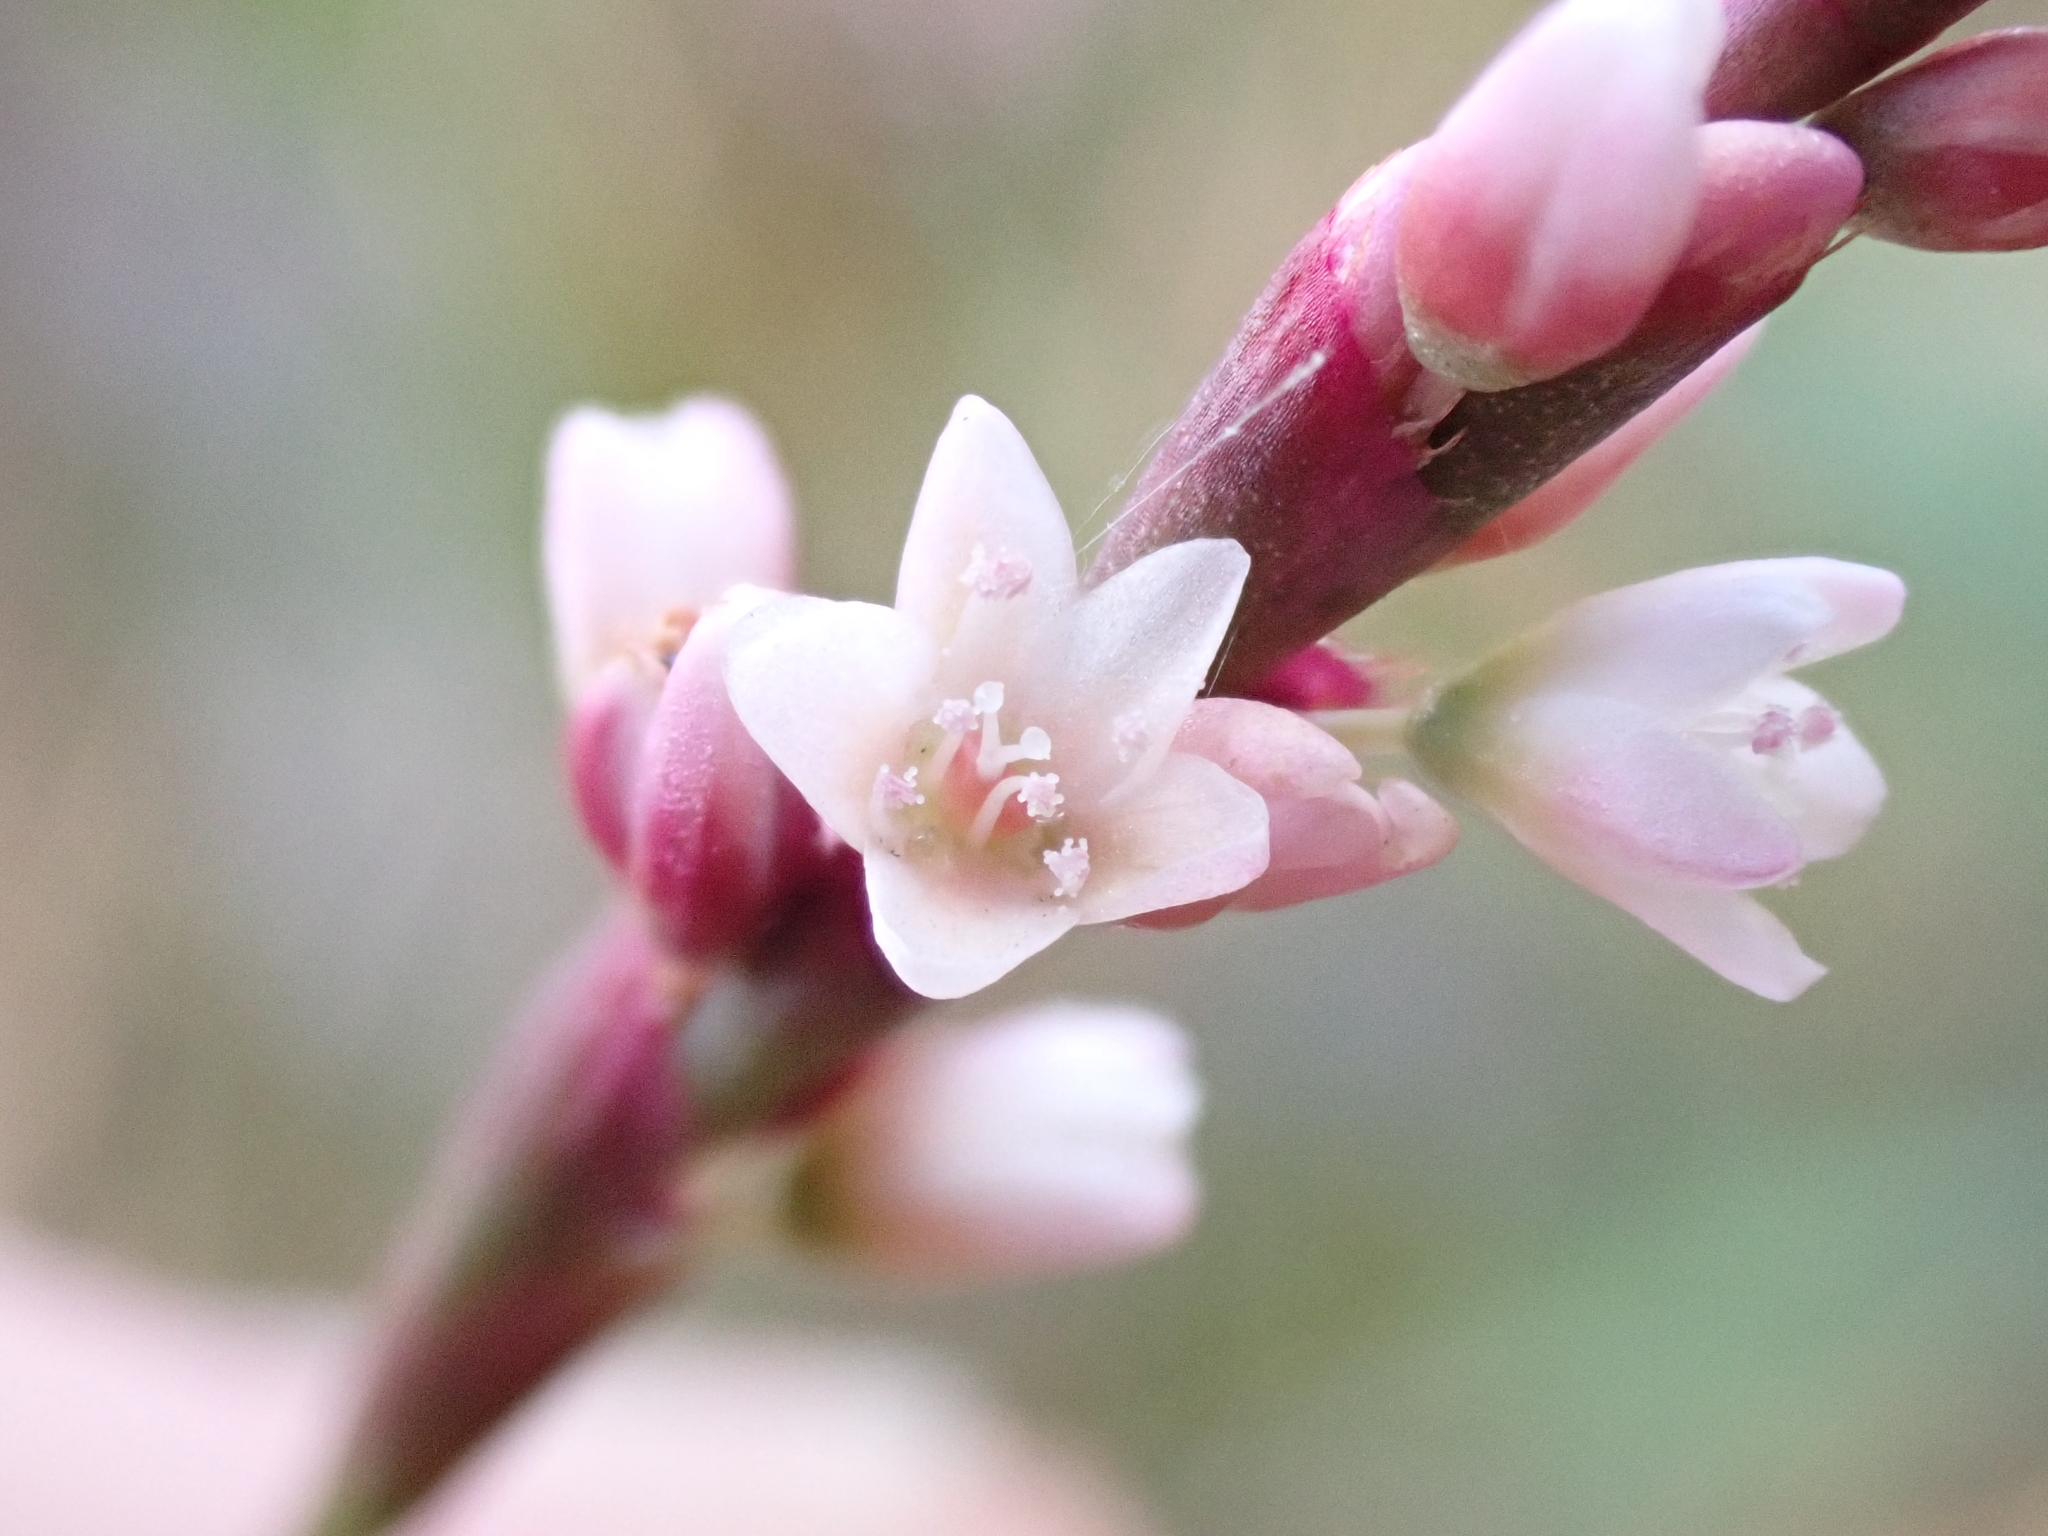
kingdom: Plantae
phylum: Tracheophyta
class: Magnoliopsida
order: Caryophyllales
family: Polygonaceae
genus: Persicaria
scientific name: Persicaria decipiens
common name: Willow-weed
